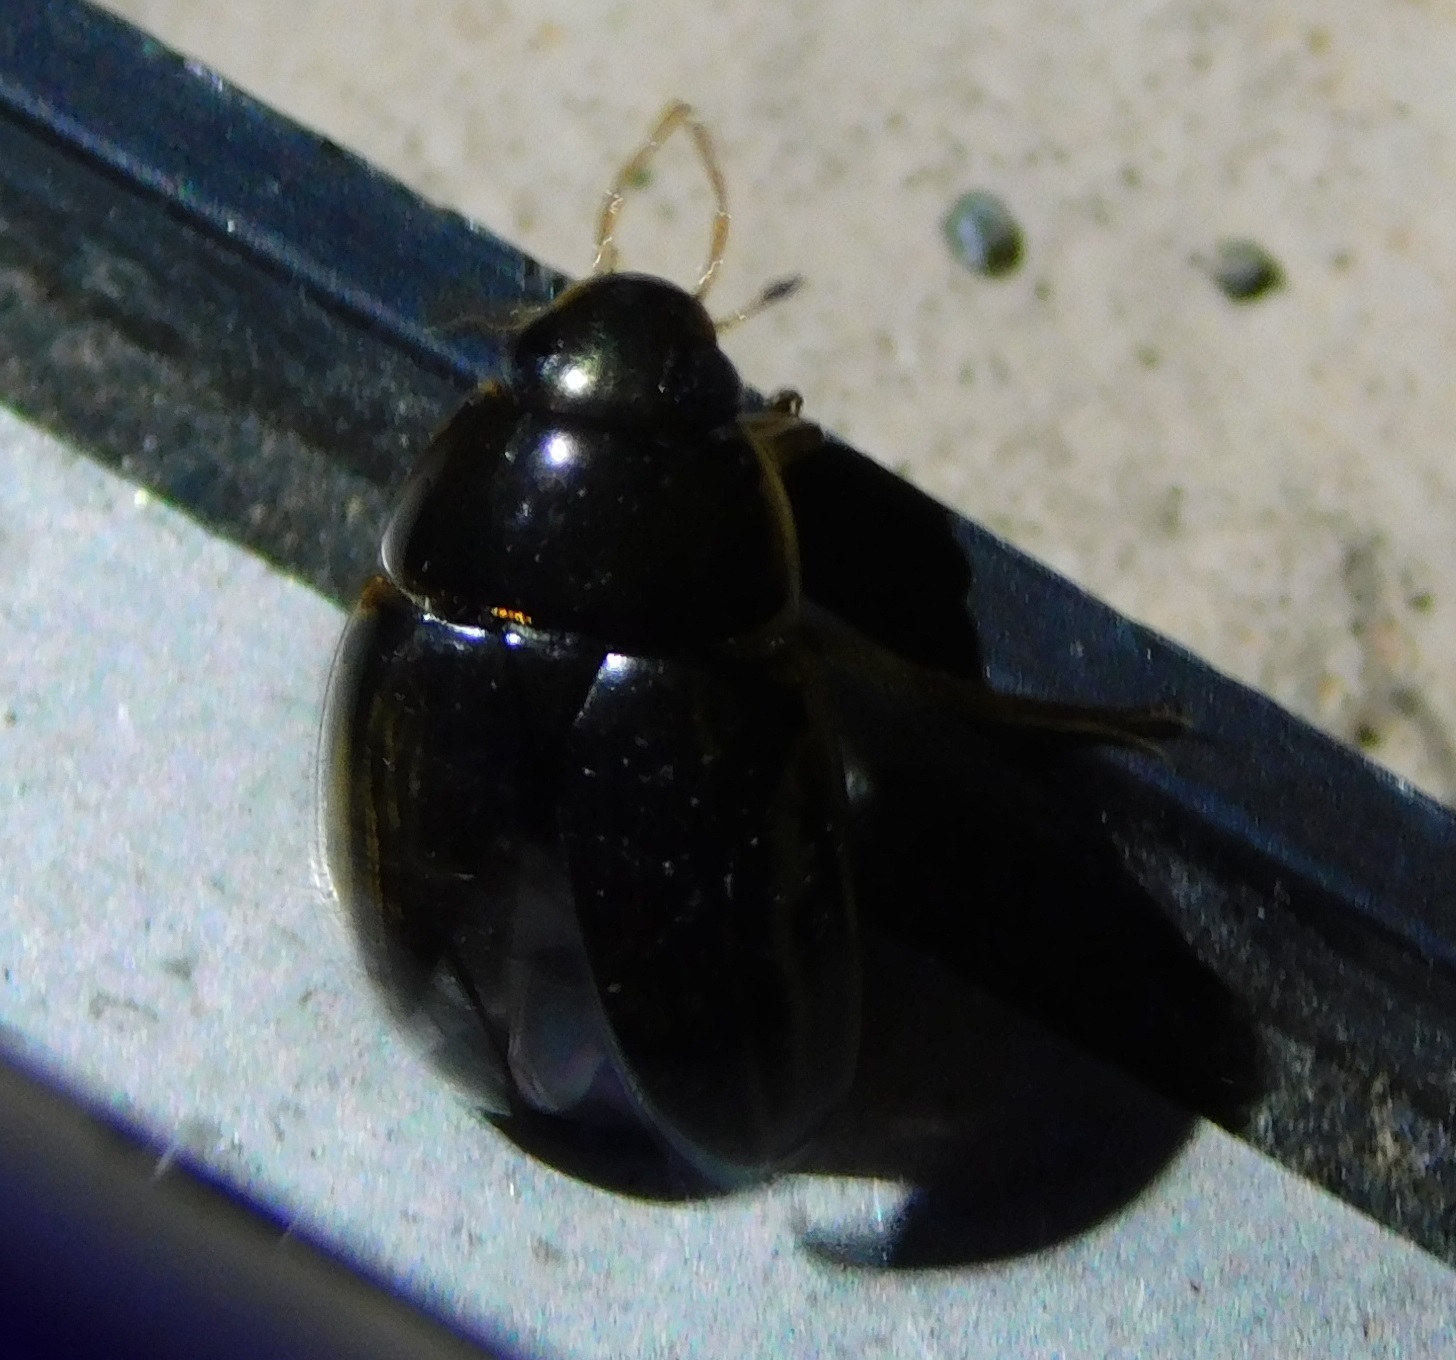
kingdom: Animalia
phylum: Arthropoda
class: Insecta
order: Coleoptera
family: Hydrophilidae
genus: Tropisternus
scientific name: Tropisternus collaris
